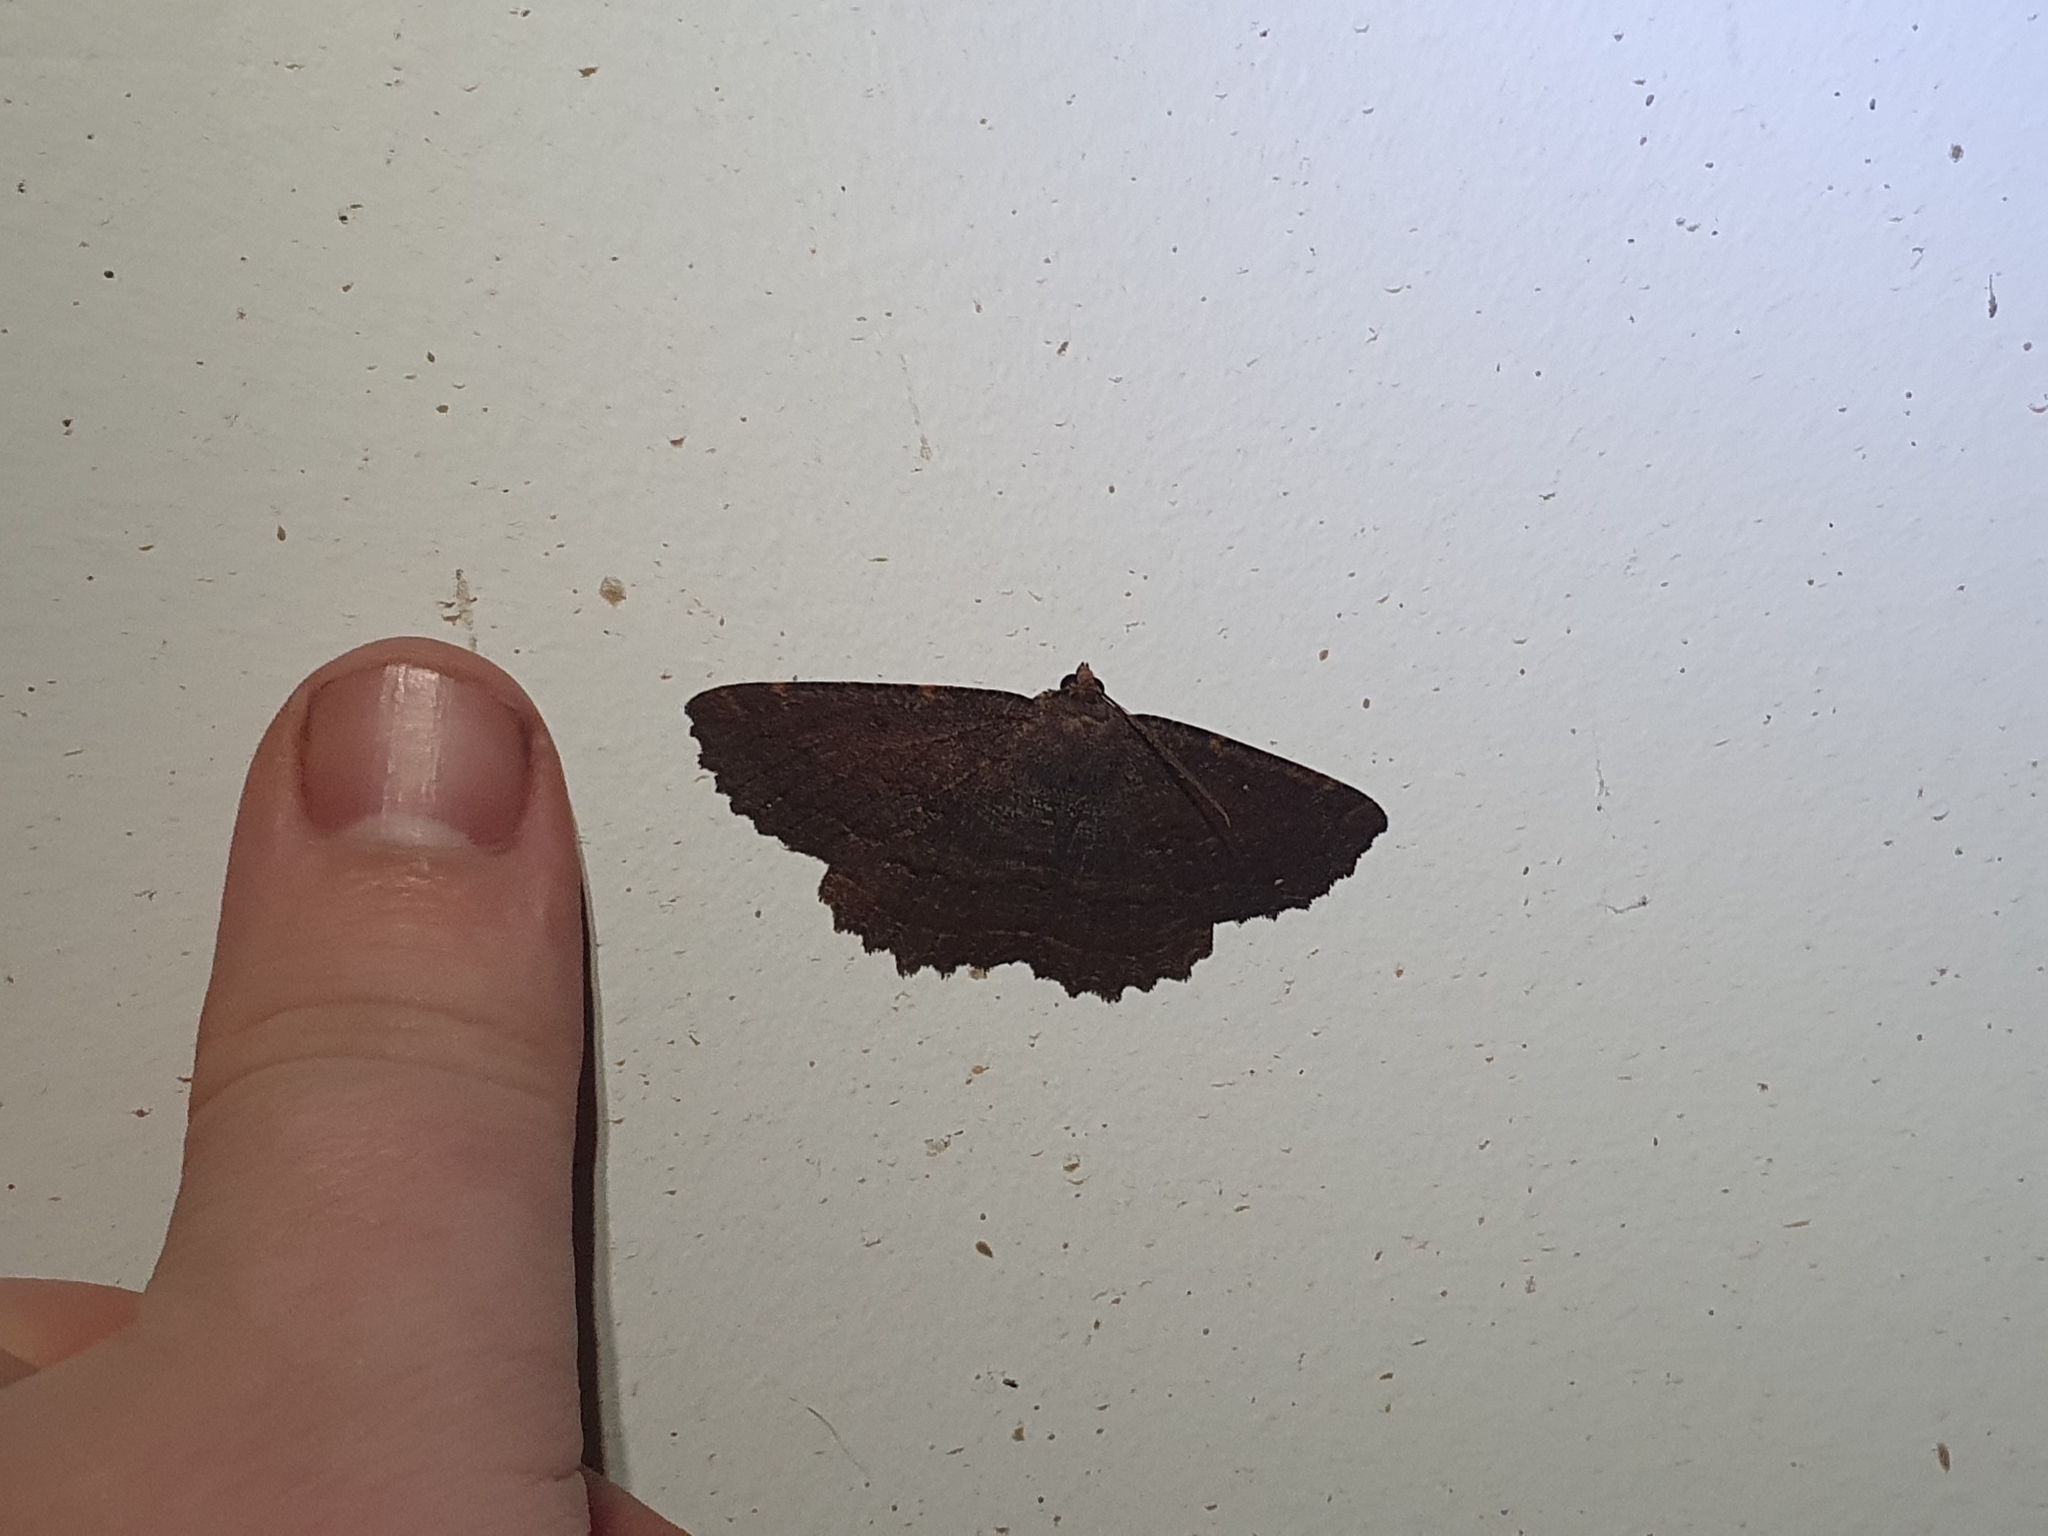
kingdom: Animalia
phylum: Arthropoda
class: Insecta
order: Lepidoptera
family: Geometridae
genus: Gellonia
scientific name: Gellonia dejectaria
